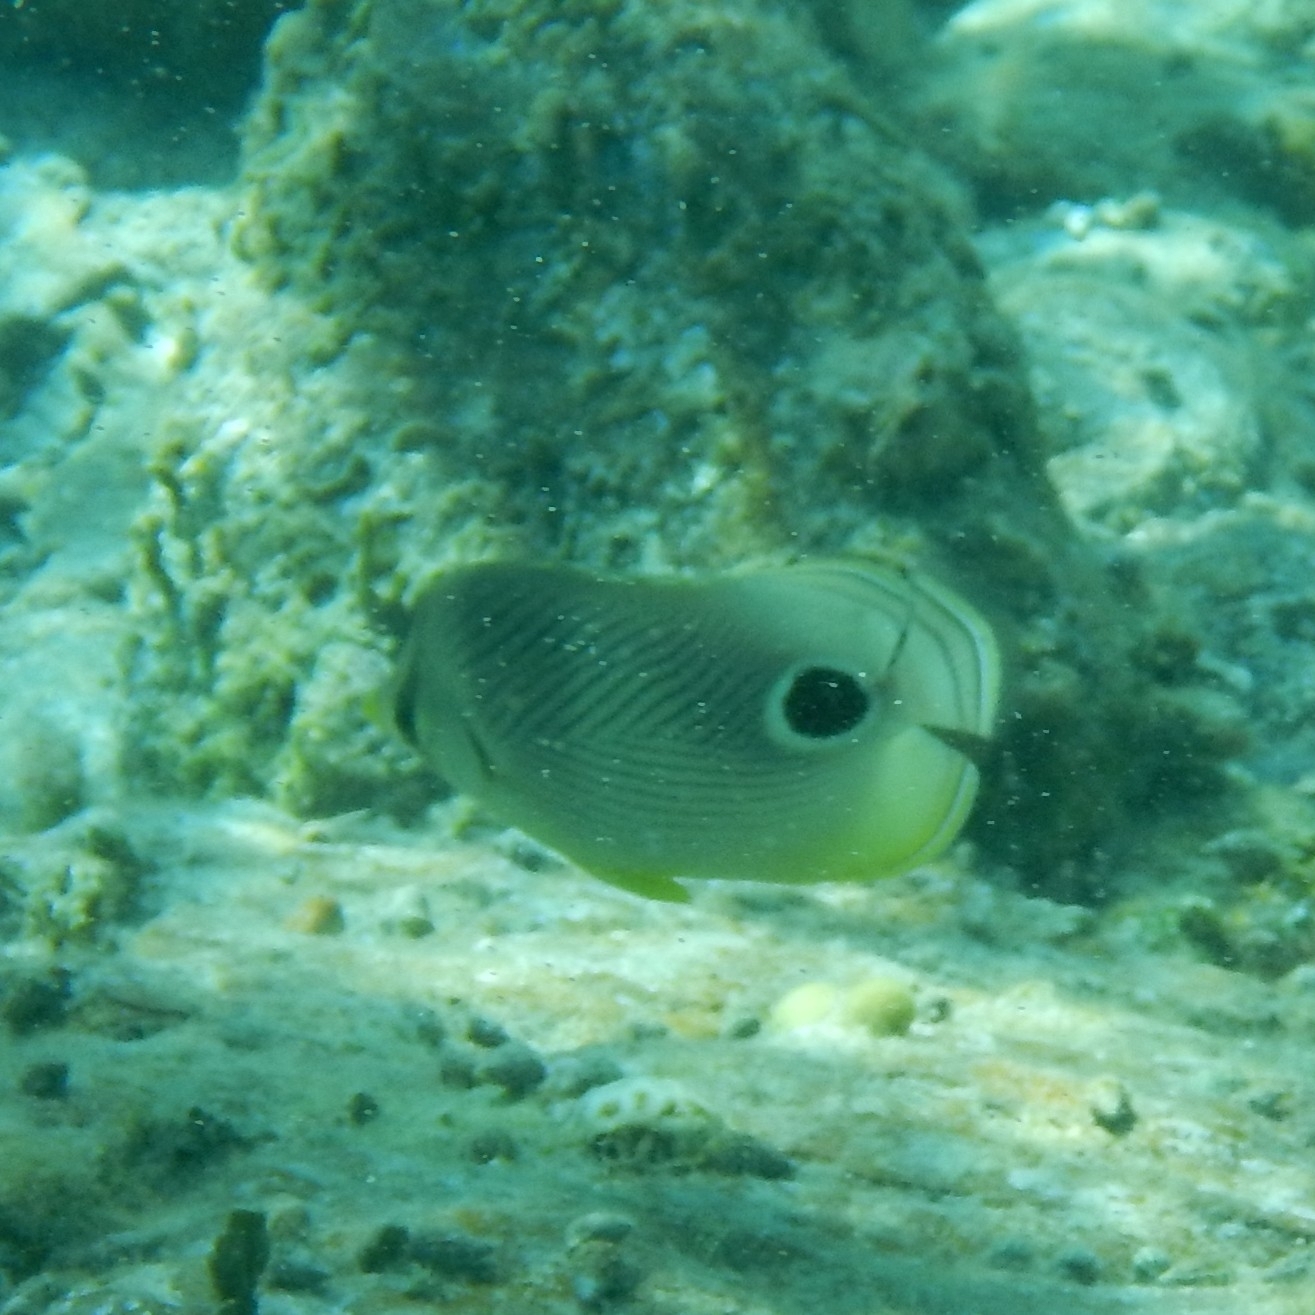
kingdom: Animalia
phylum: Chordata
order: Perciformes
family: Chaetodontidae
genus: Chaetodon
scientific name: Chaetodon capistratus
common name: Kete
